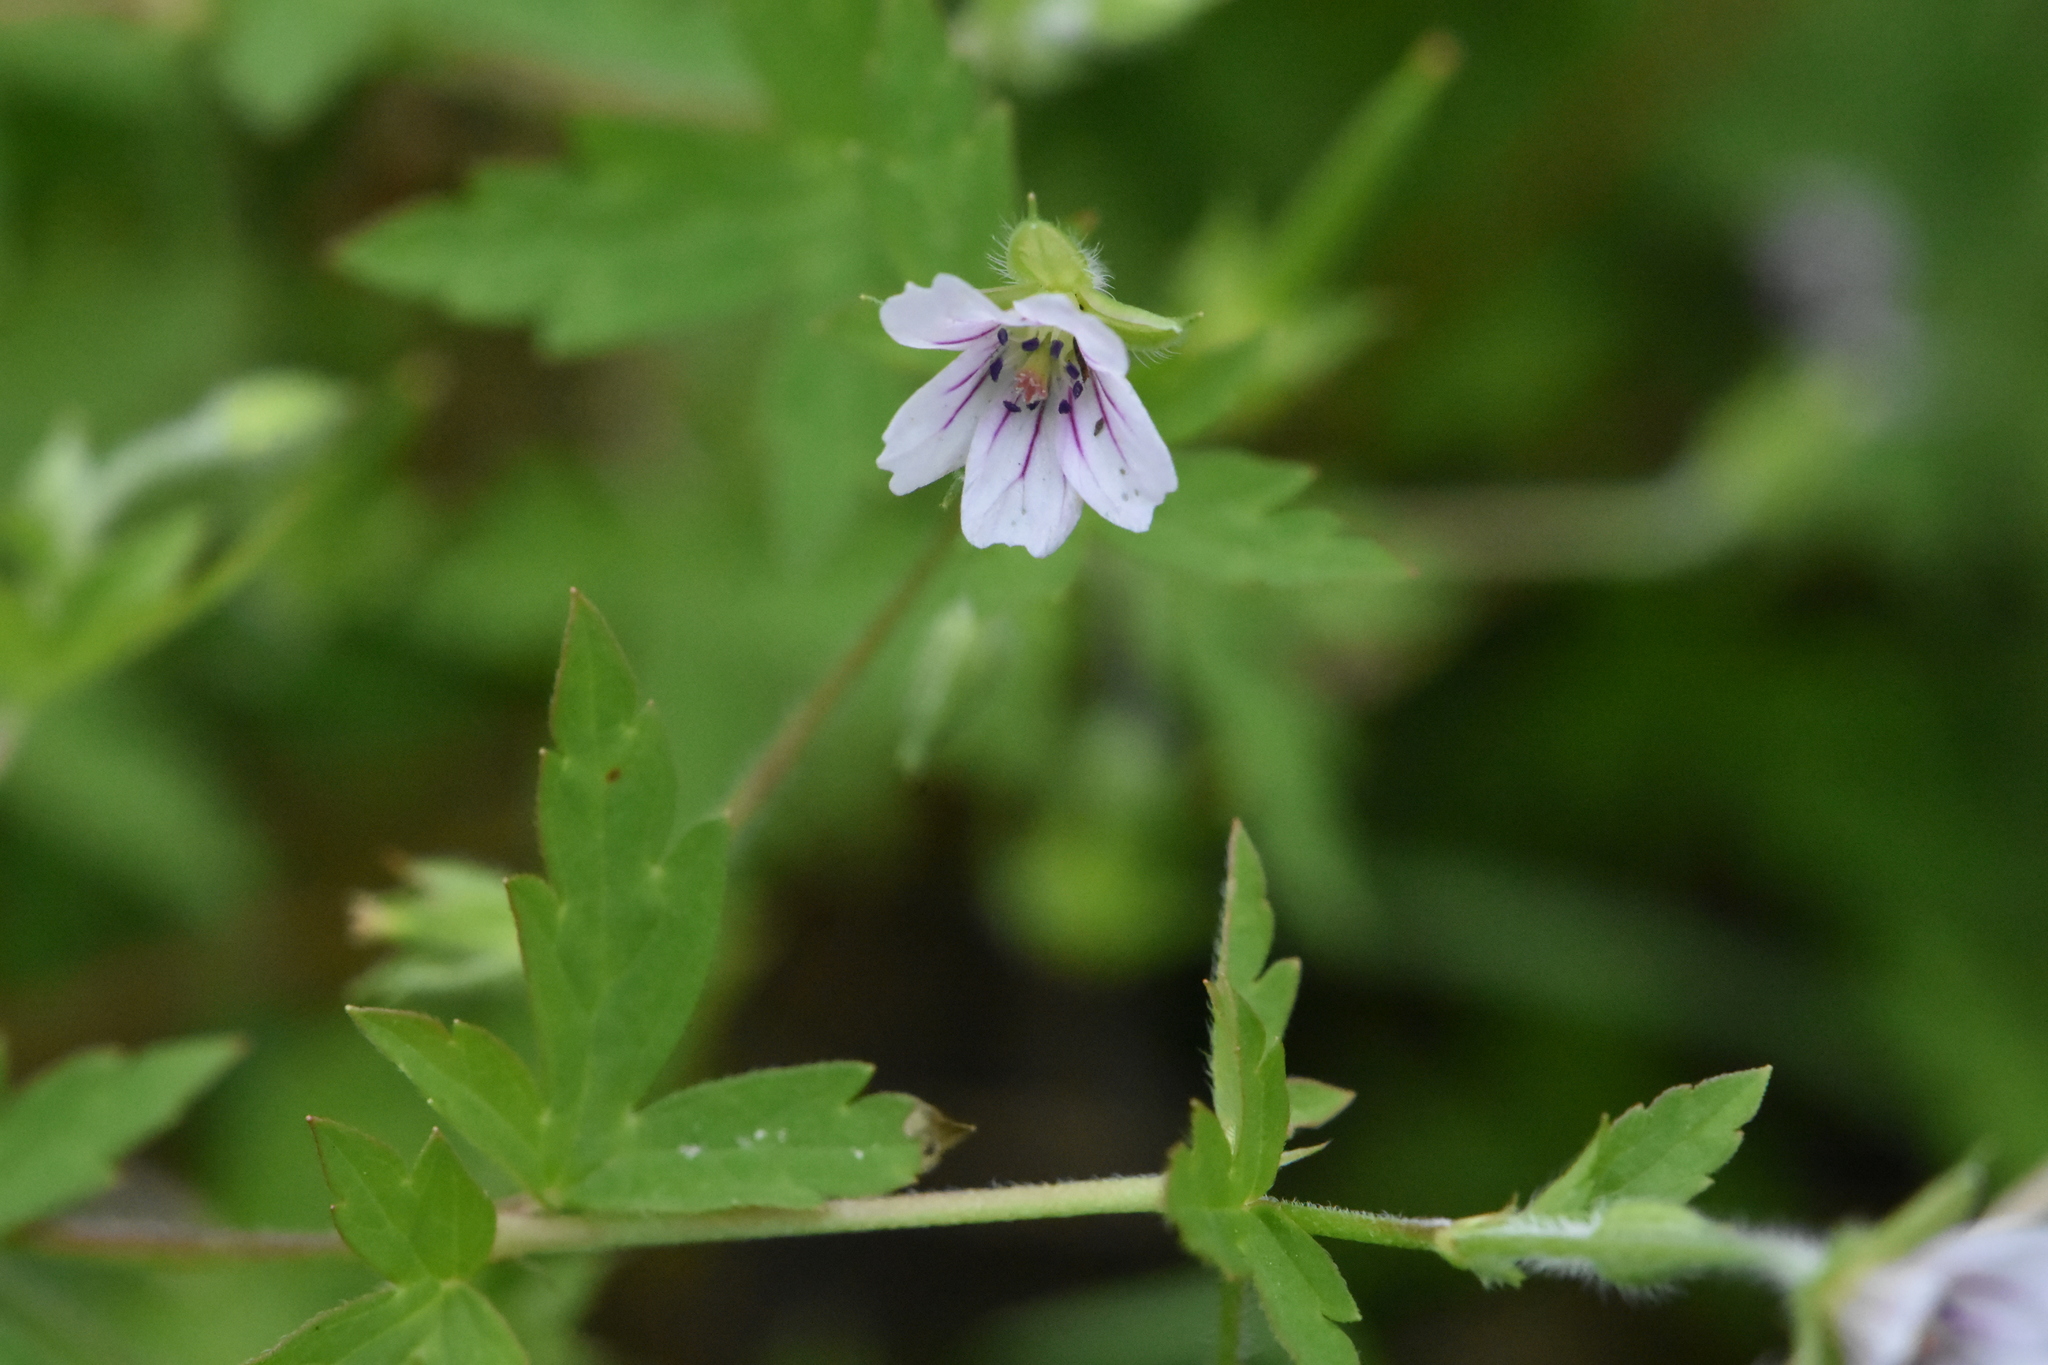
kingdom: Plantae
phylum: Tracheophyta
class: Magnoliopsida
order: Geraniales
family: Geraniaceae
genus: Geranium
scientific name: Geranium sibiricum
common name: Siberian crane's-bill
